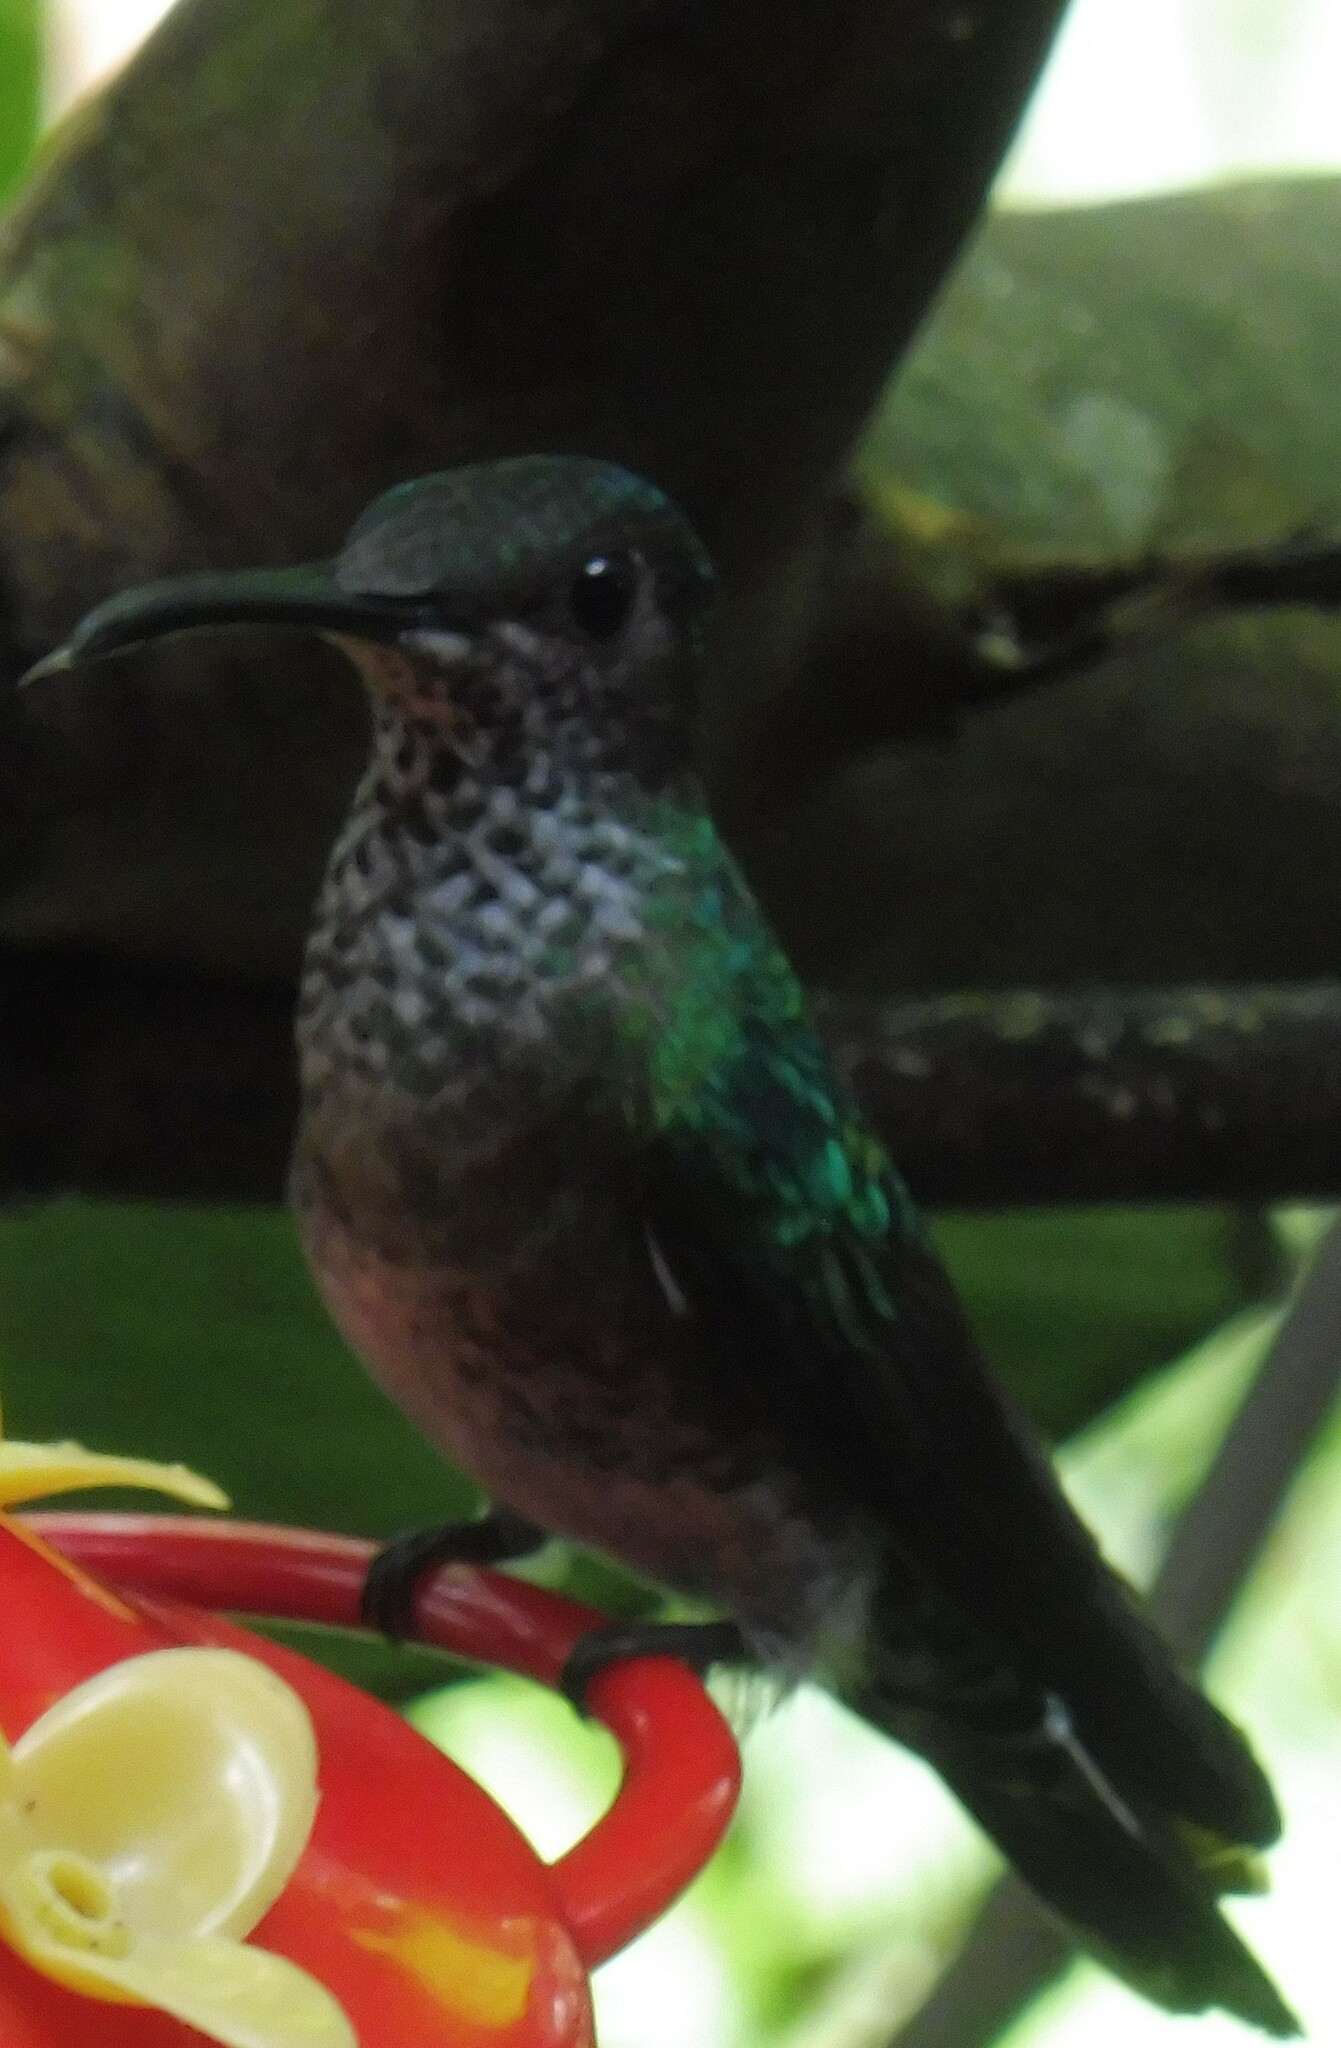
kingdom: Animalia
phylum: Chordata
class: Aves
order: Apodiformes
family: Trochilidae
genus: Florisuga
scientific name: Florisuga mellivora
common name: White-necked jacobin
